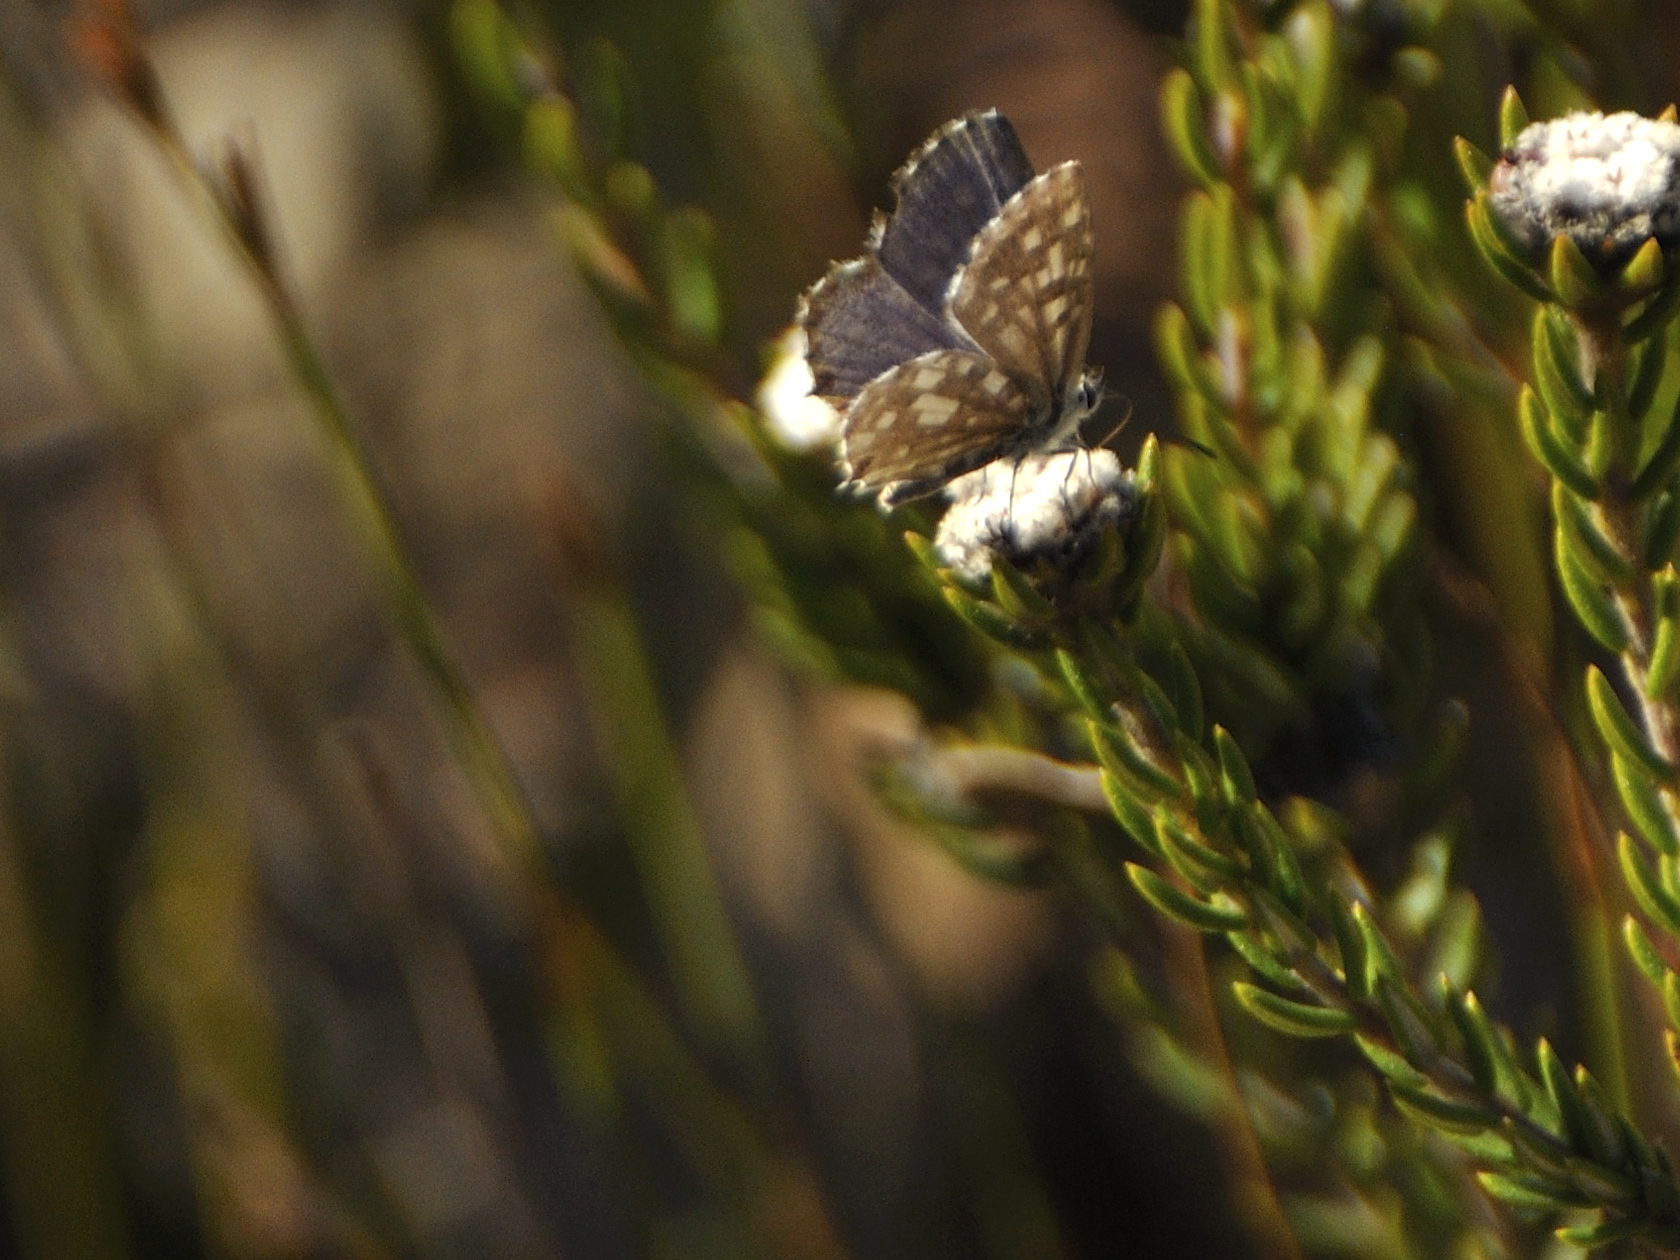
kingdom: Animalia
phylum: Arthropoda
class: Insecta
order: Lepidoptera
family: Lycaenidae
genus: Tarucus
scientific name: Tarucus thespis
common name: Vivid dotted blue
